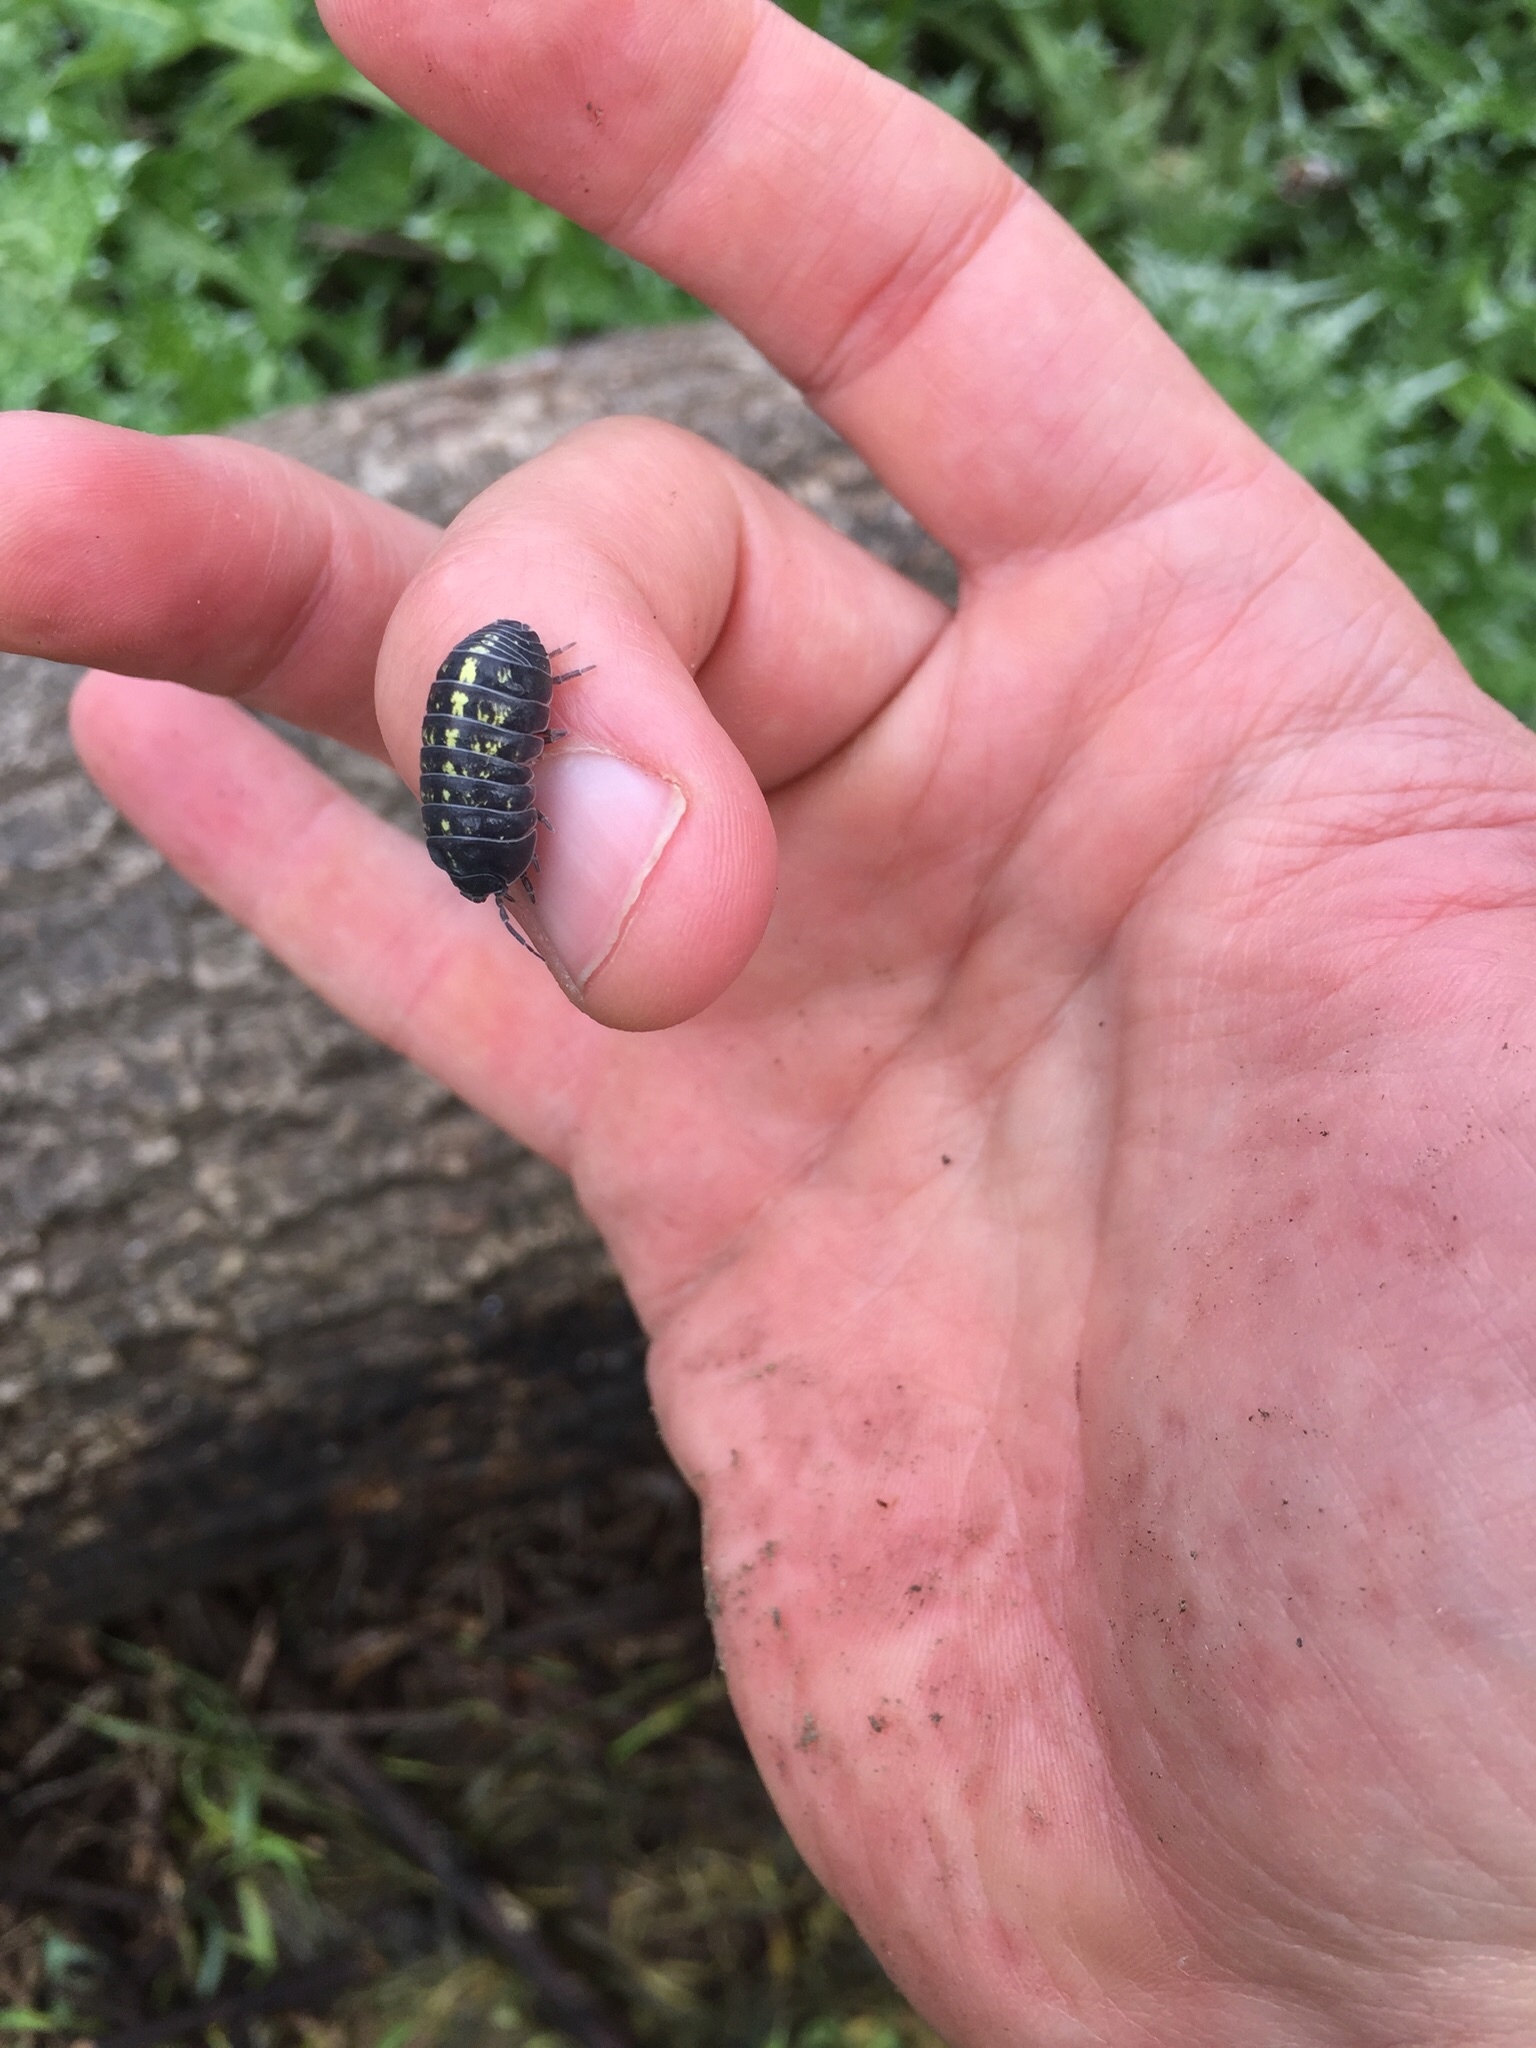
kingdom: Animalia
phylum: Arthropoda
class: Malacostraca
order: Isopoda
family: Armadillidiidae
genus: Armadillidium
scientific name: Armadillidium vulgare
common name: Common pill woodlouse
